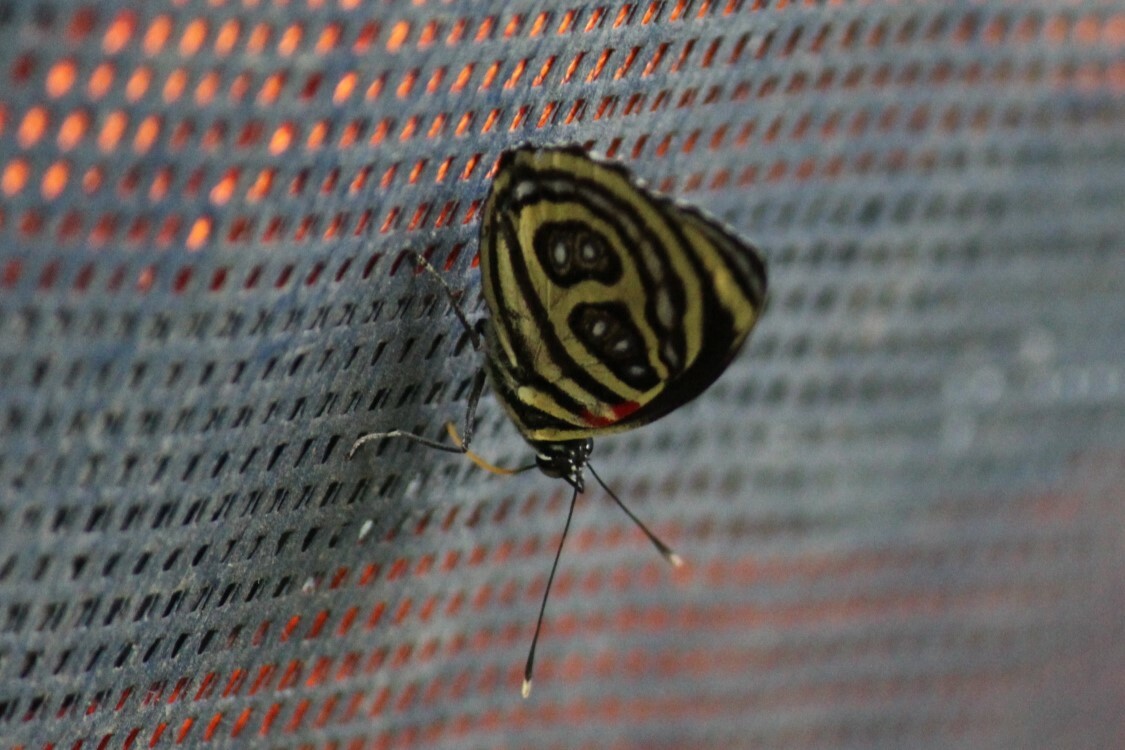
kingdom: Animalia
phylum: Arthropoda
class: Insecta
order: Lepidoptera
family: Nymphalidae
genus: Catagramma
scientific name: Catagramma pygas
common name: Godart's numberwing
